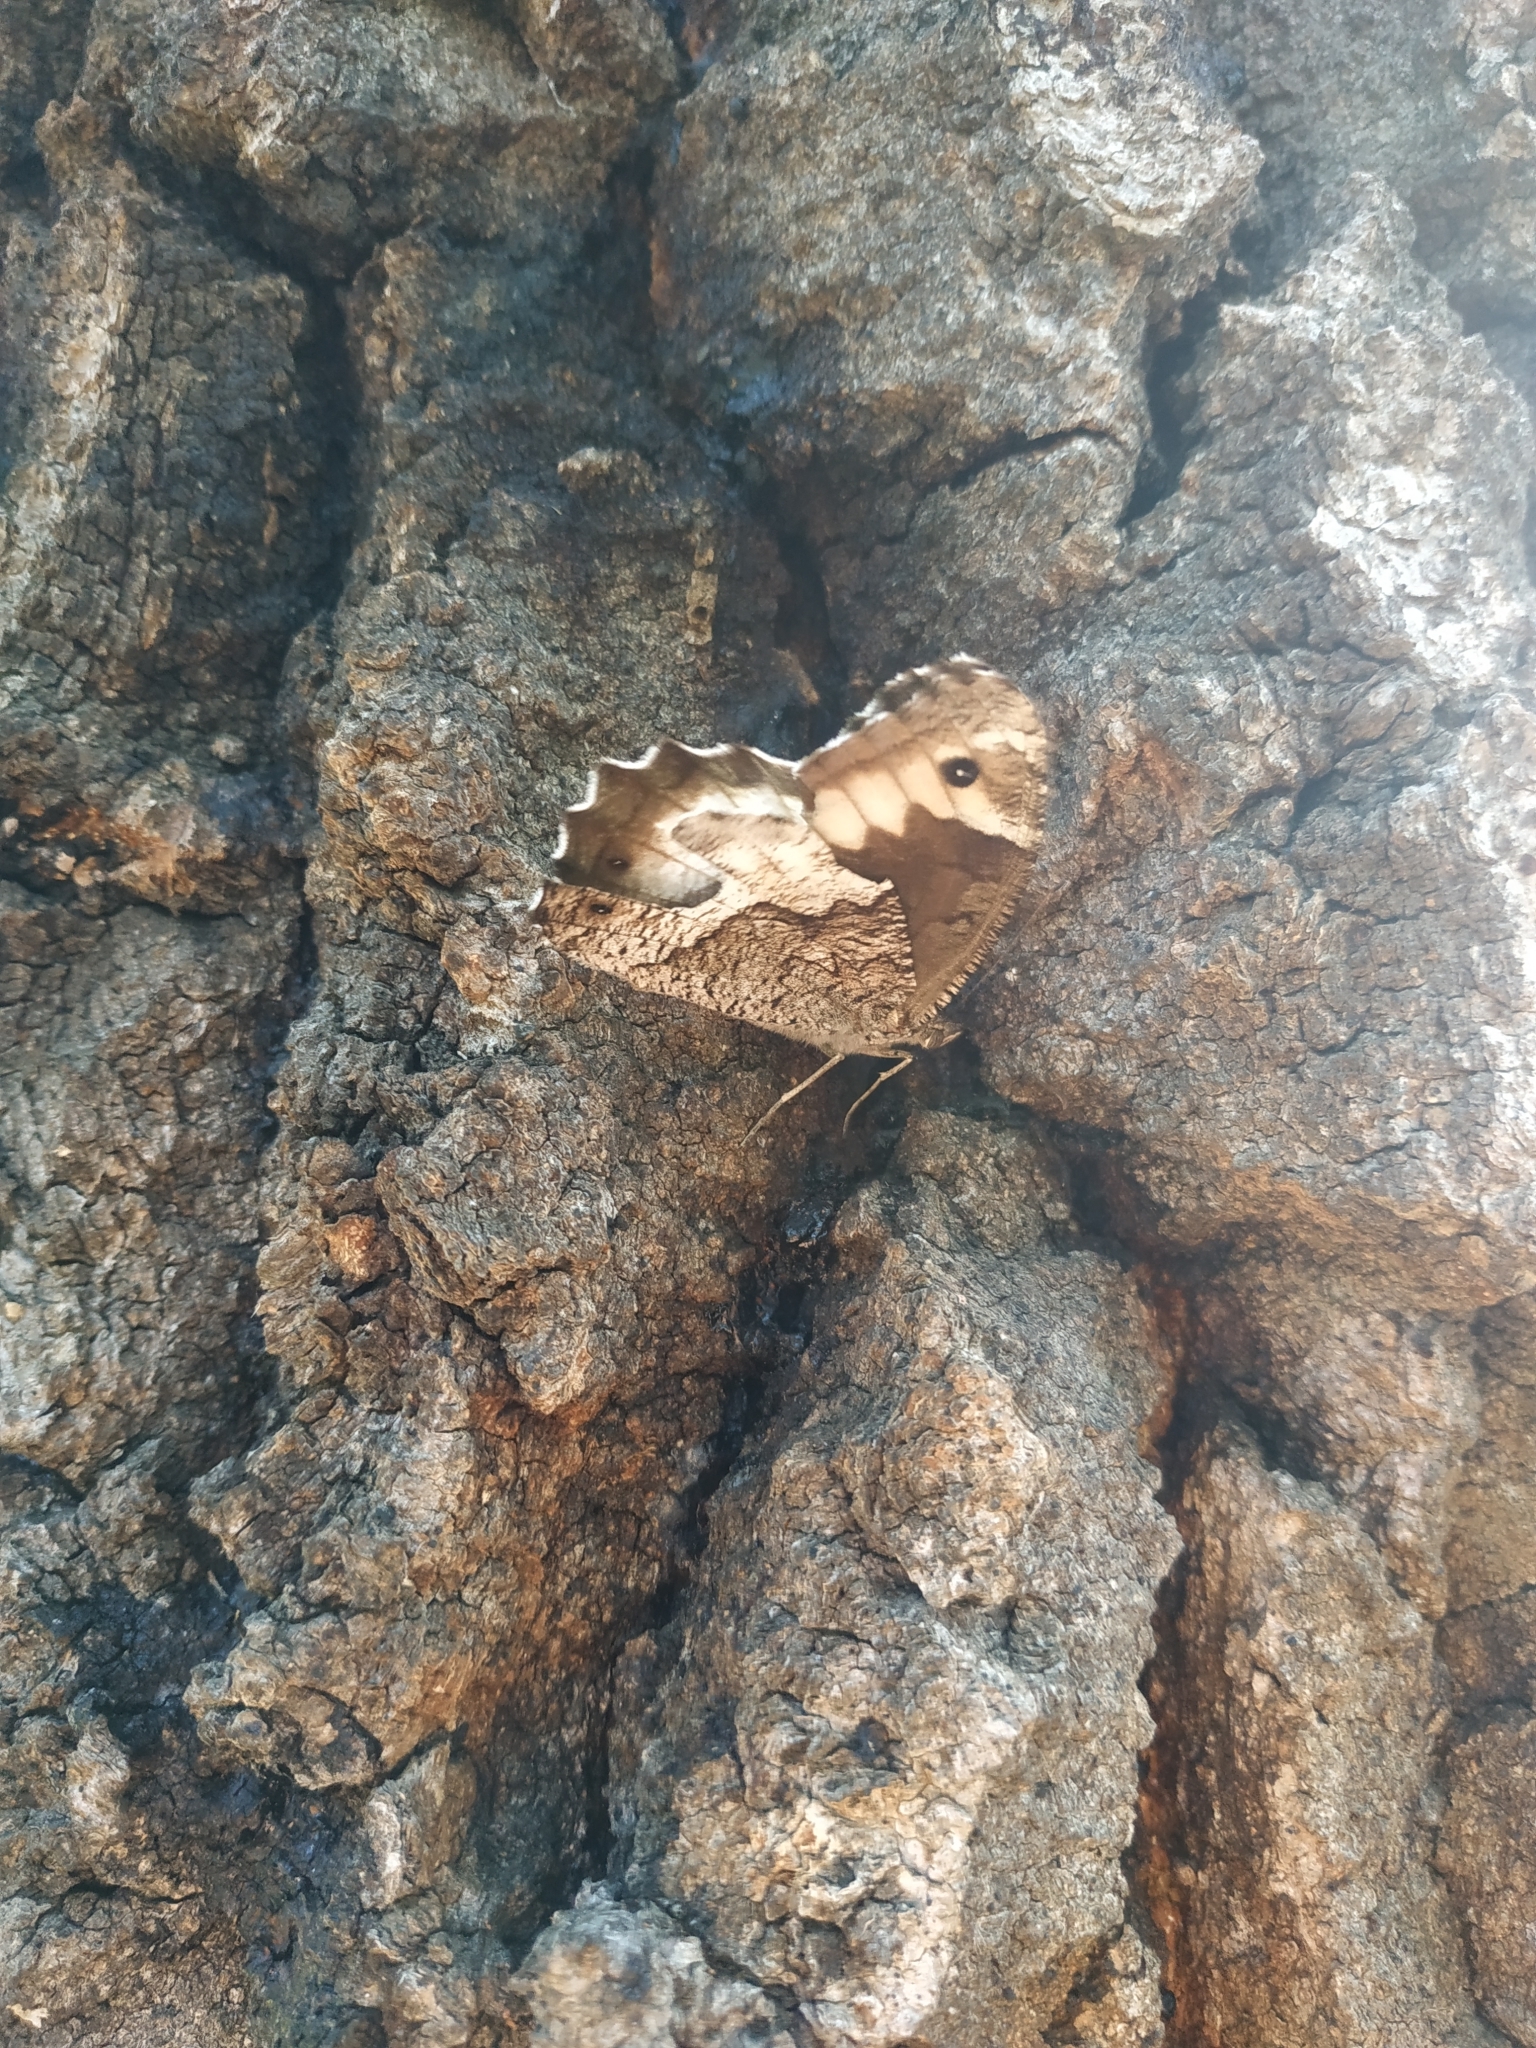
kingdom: Animalia
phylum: Arthropoda
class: Insecta
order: Lepidoptera
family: Nymphalidae
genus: Hipparchia
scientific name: Hipparchia fagi
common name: Woodland grayling
